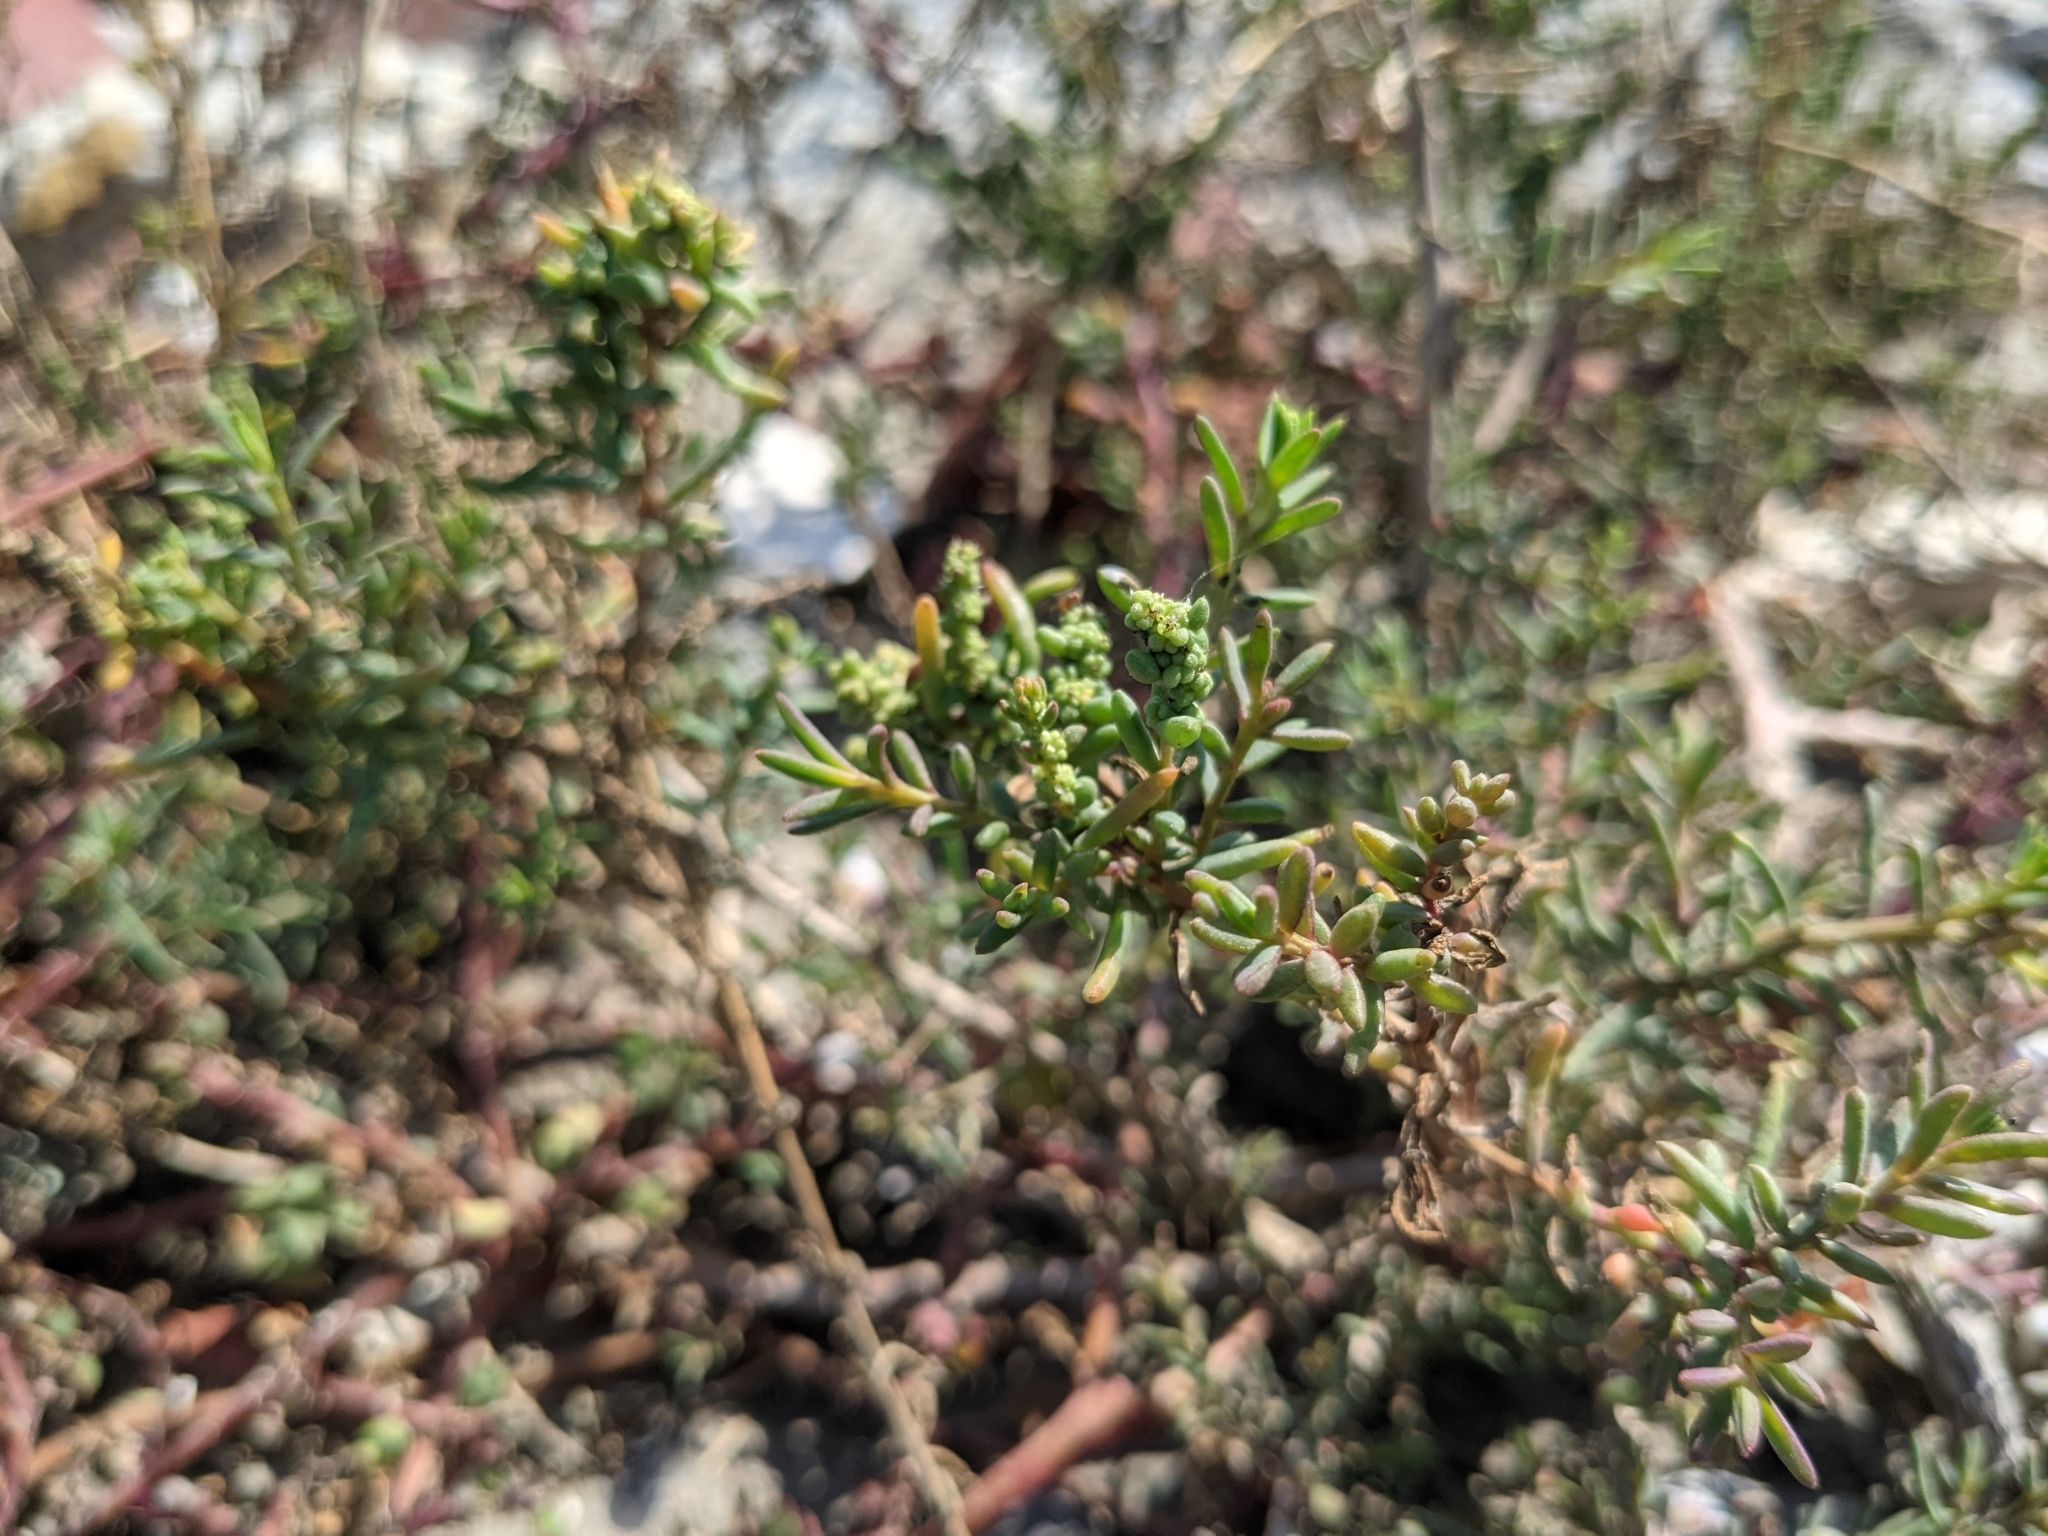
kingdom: Plantae
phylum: Tracheophyta
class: Magnoliopsida
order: Caryophyllales
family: Aizoaceae
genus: Sesuvium
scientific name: Sesuvium portulacastrum
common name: Sea-purslane
